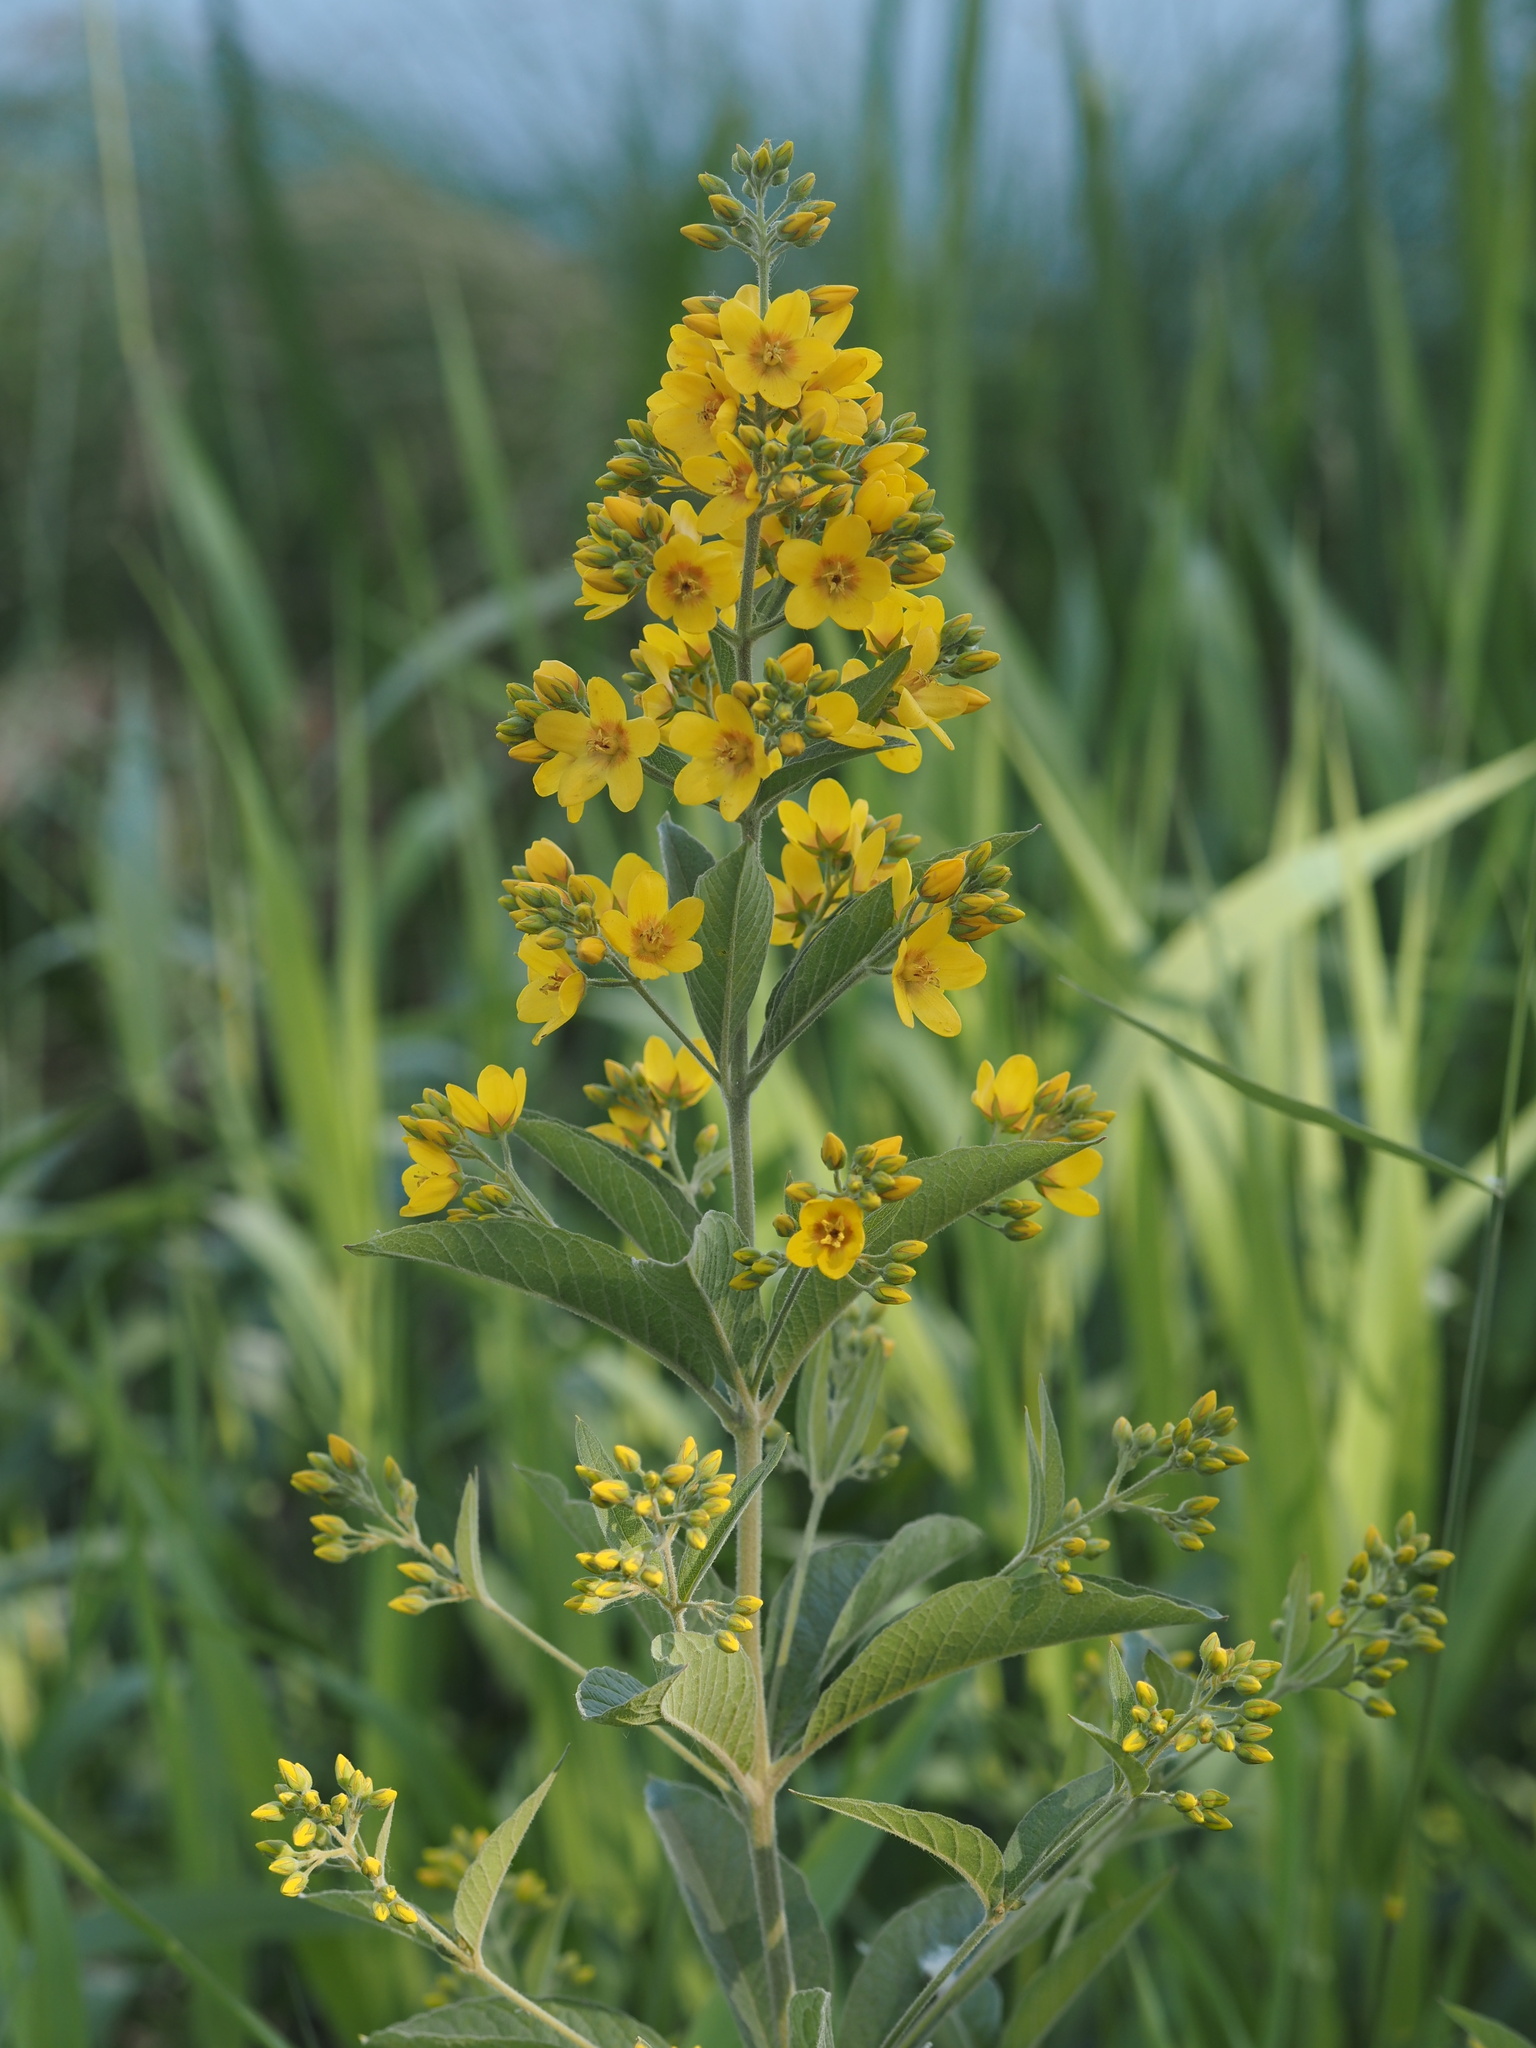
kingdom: Plantae
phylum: Tracheophyta
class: Magnoliopsida
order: Ericales
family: Primulaceae
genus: Lysimachia
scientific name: Lysimachia vulgaris
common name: Yellow loosestrife
